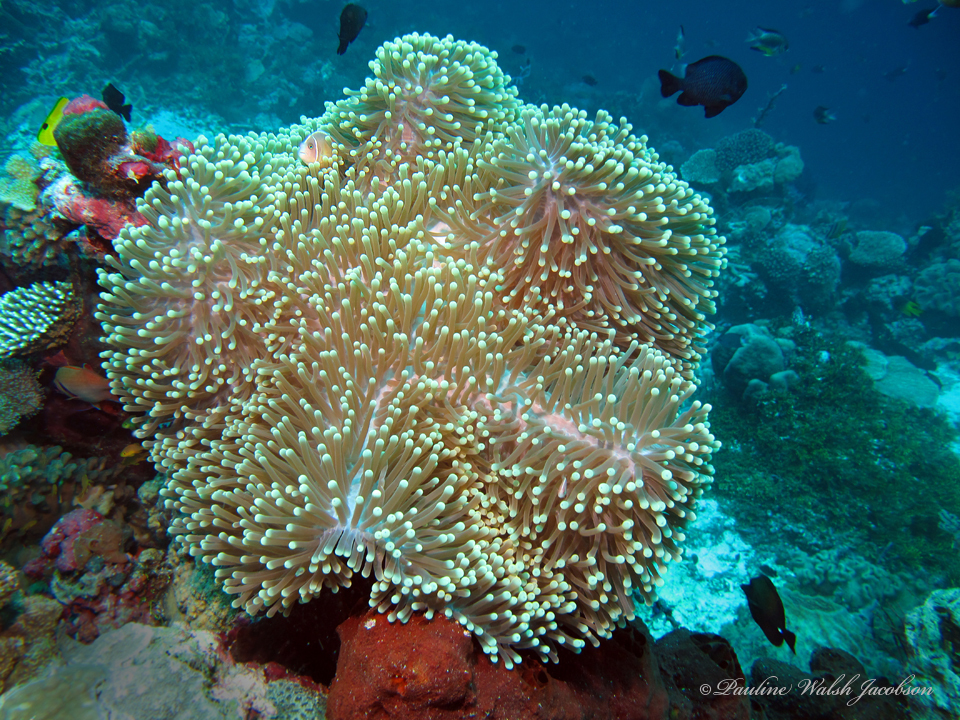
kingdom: Animalia
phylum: Chordata
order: Perciformes
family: Pomacentridae
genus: Amphiprion
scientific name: Amphiprion perideraion
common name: Pink anemonefish
